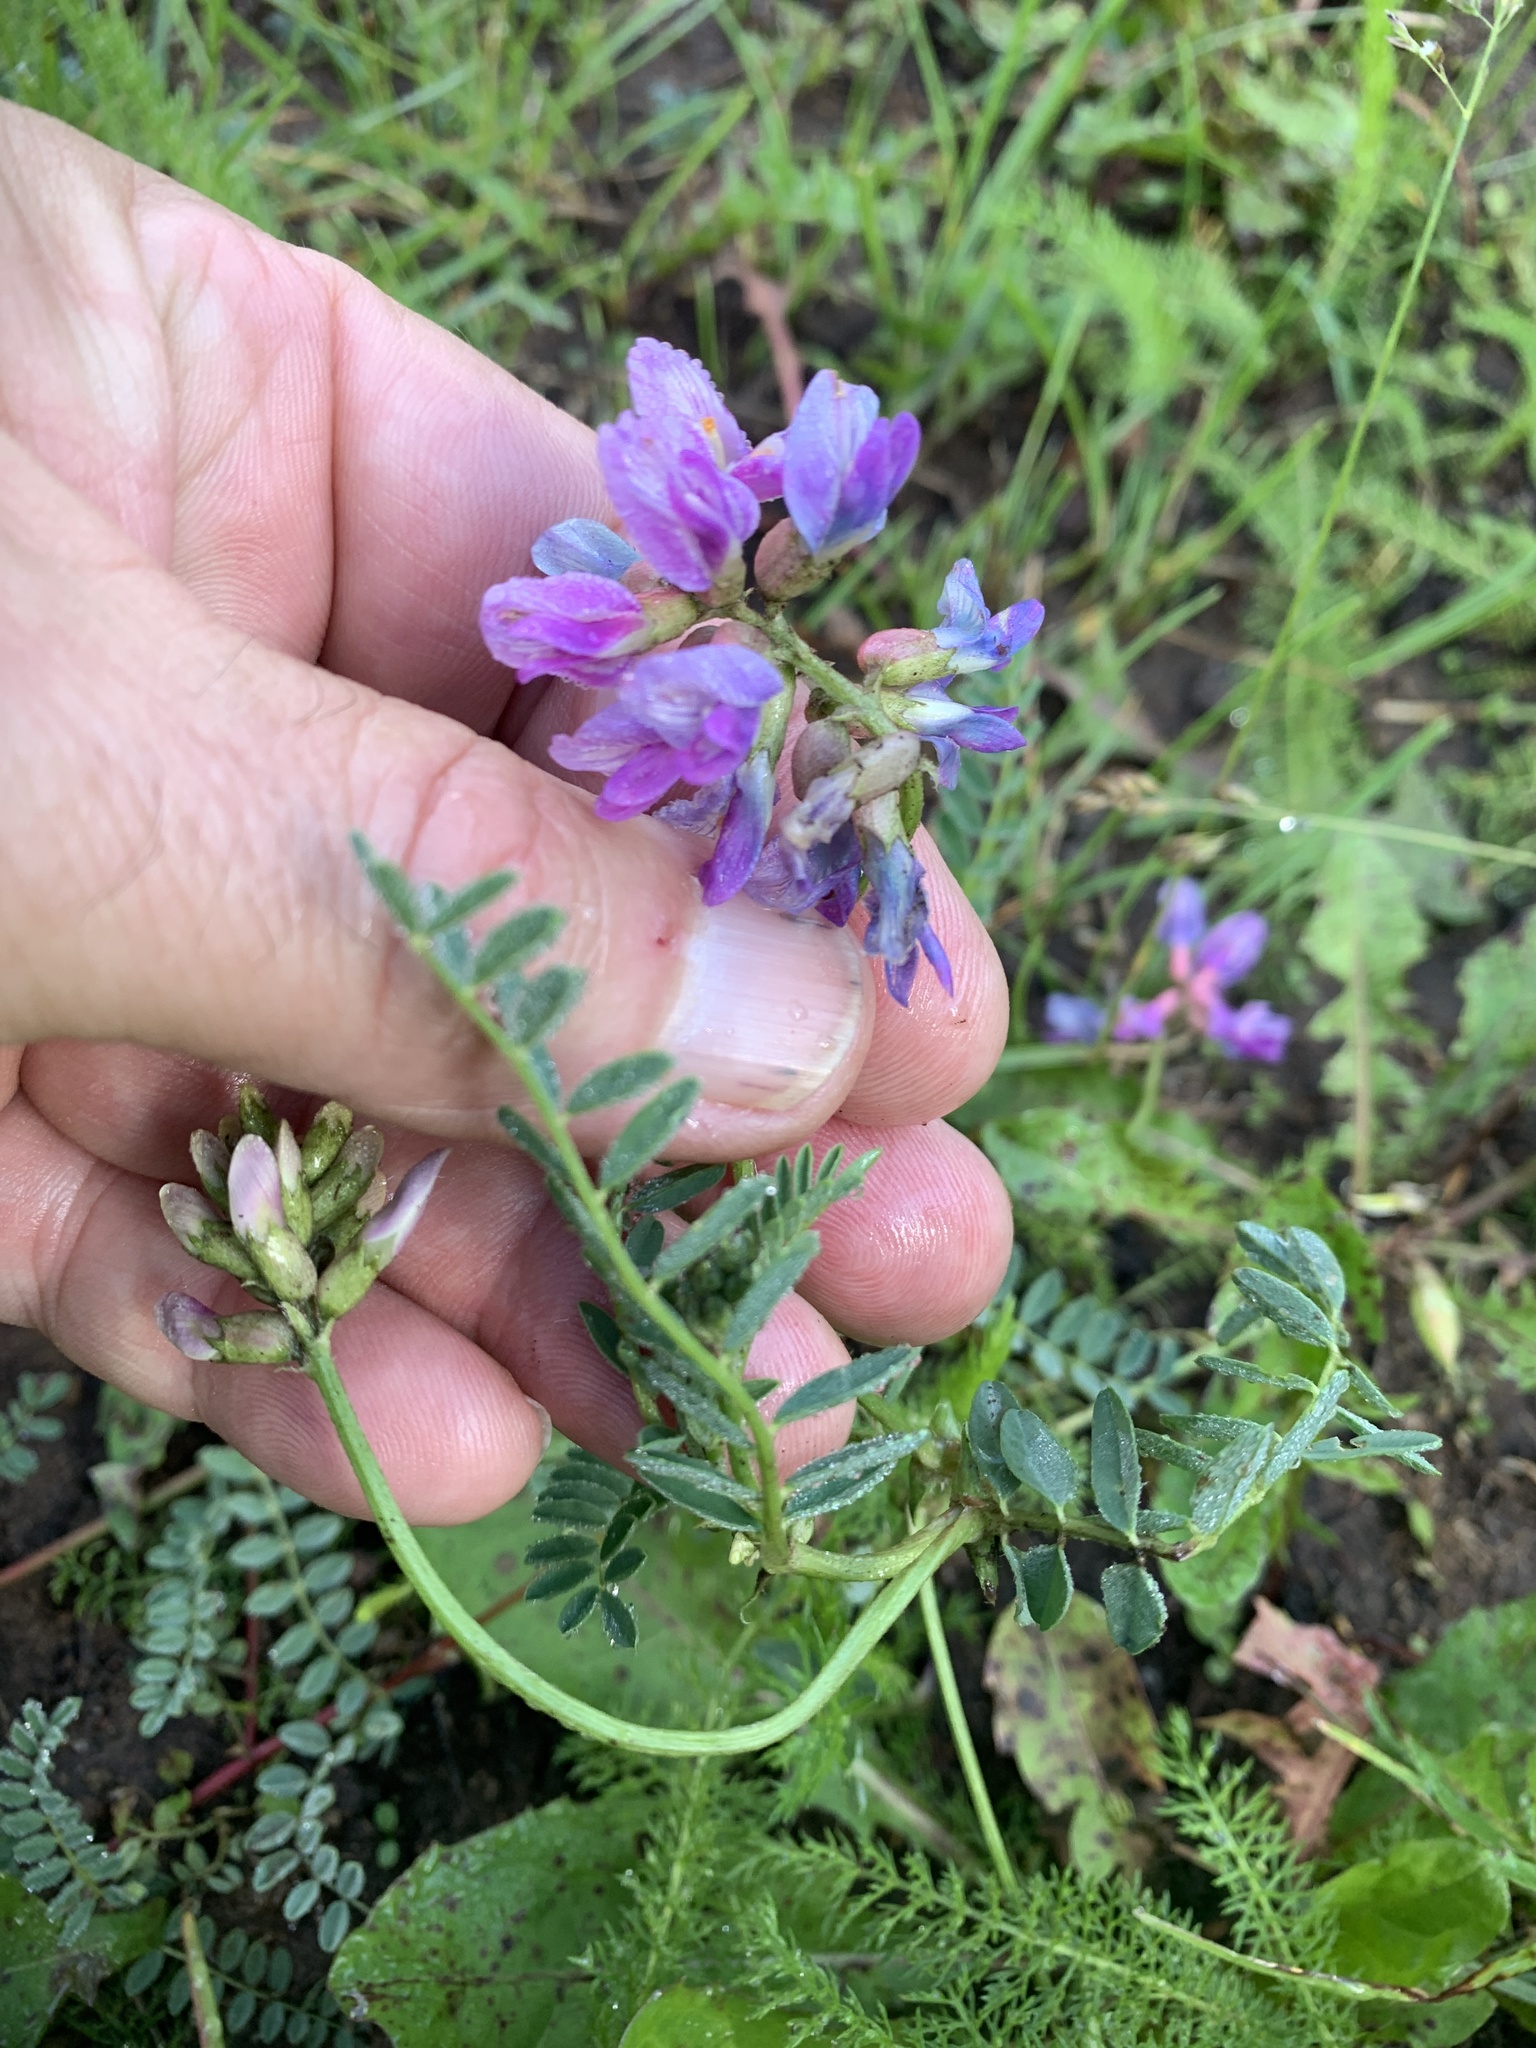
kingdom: Plantae
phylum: Tracheophyta
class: Magnoliopsida
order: Fabales
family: Fabaceae
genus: Astragalus
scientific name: Astragalus hallii
